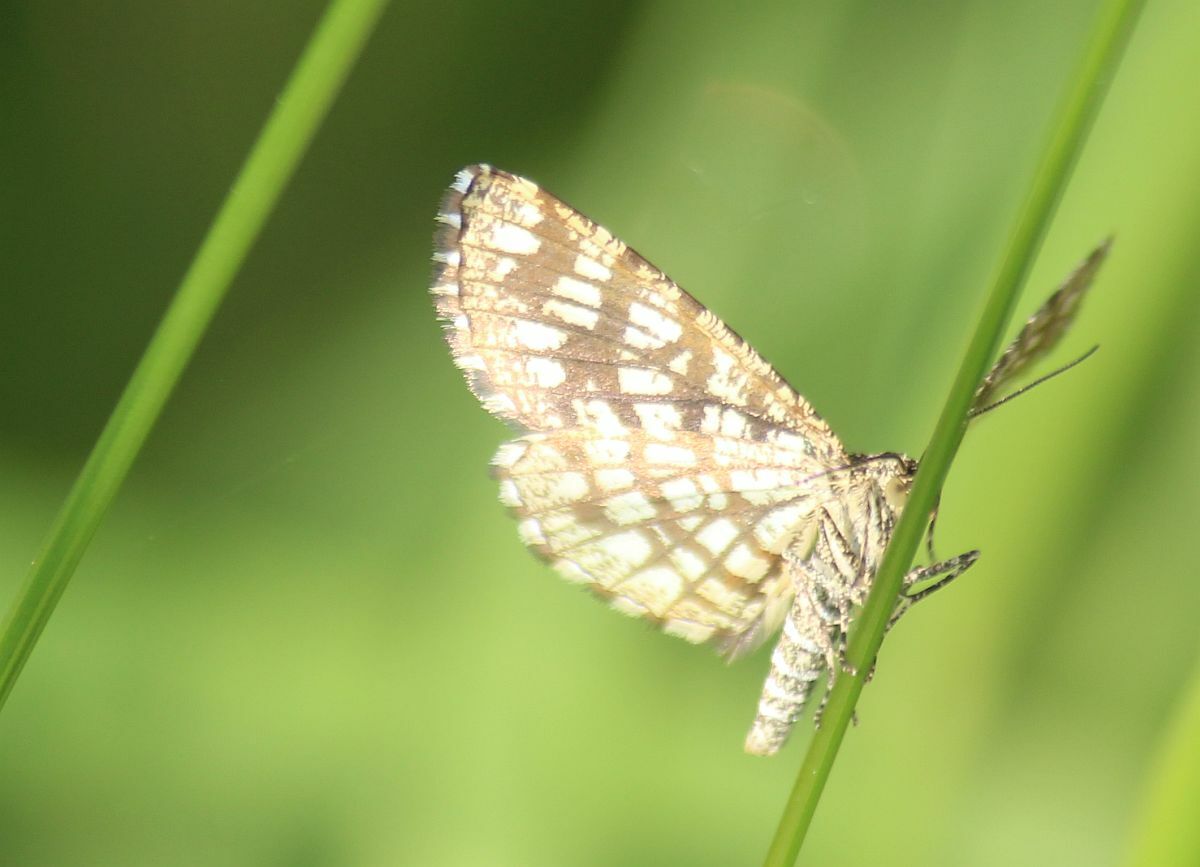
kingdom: Animalia
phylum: Arthropoda
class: Insecta
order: Lepidoptera
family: Geometridae
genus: Chiasmia
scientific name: Chiasmia clathrata
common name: Latticed heath
